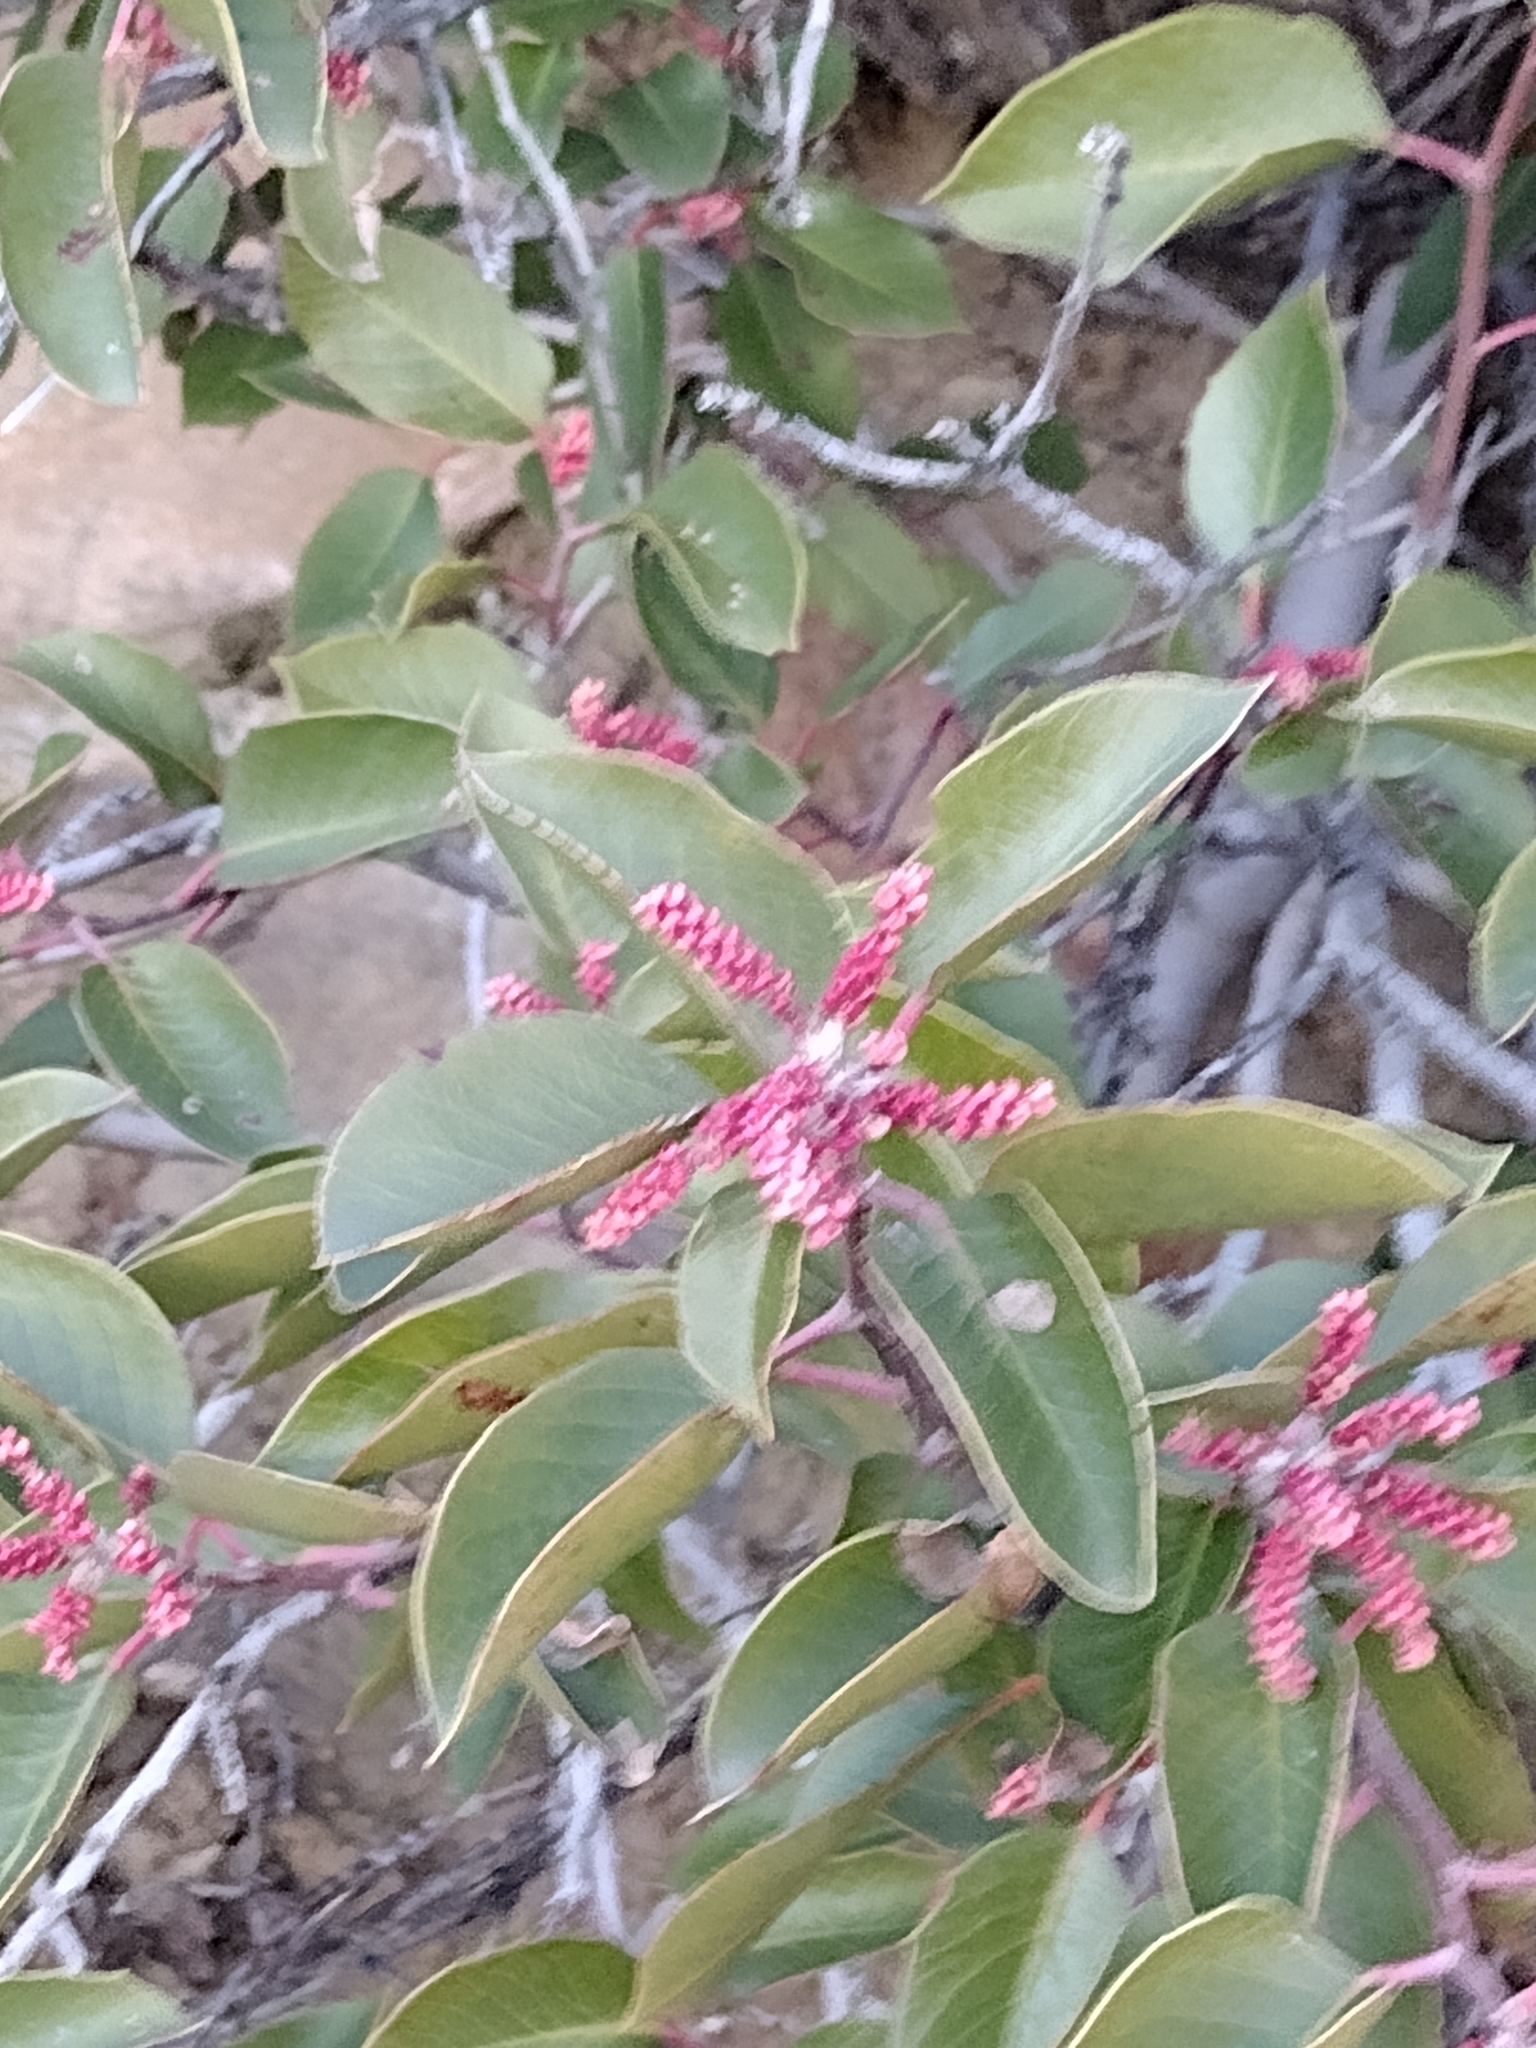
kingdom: Plantae
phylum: Tracheophyta
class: Magnoliopsida
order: Sapindales
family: Anacardiaceae
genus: Rhus
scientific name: Rhus ovata
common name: Sugar sumac
